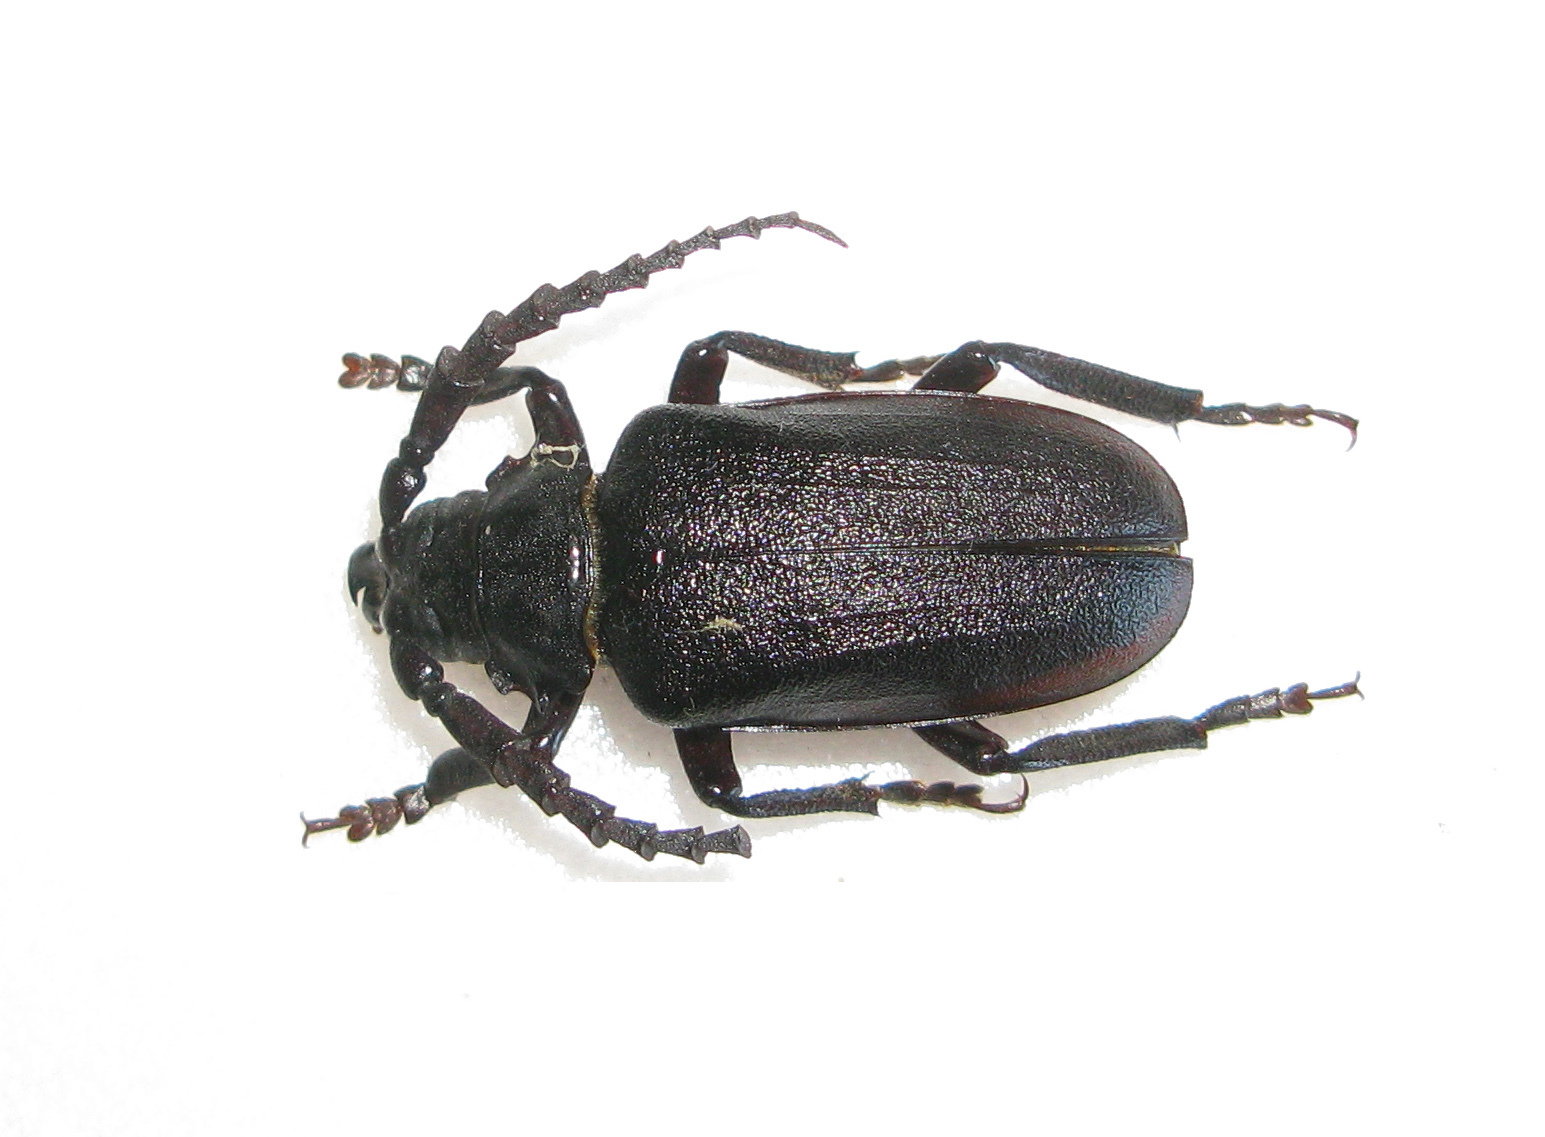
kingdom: Animalia
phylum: Arthropoda
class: Insecta
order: Coleoptera
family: Cerambycidae
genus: Prionus
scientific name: Prionus coriarius
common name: Tanner beetle
